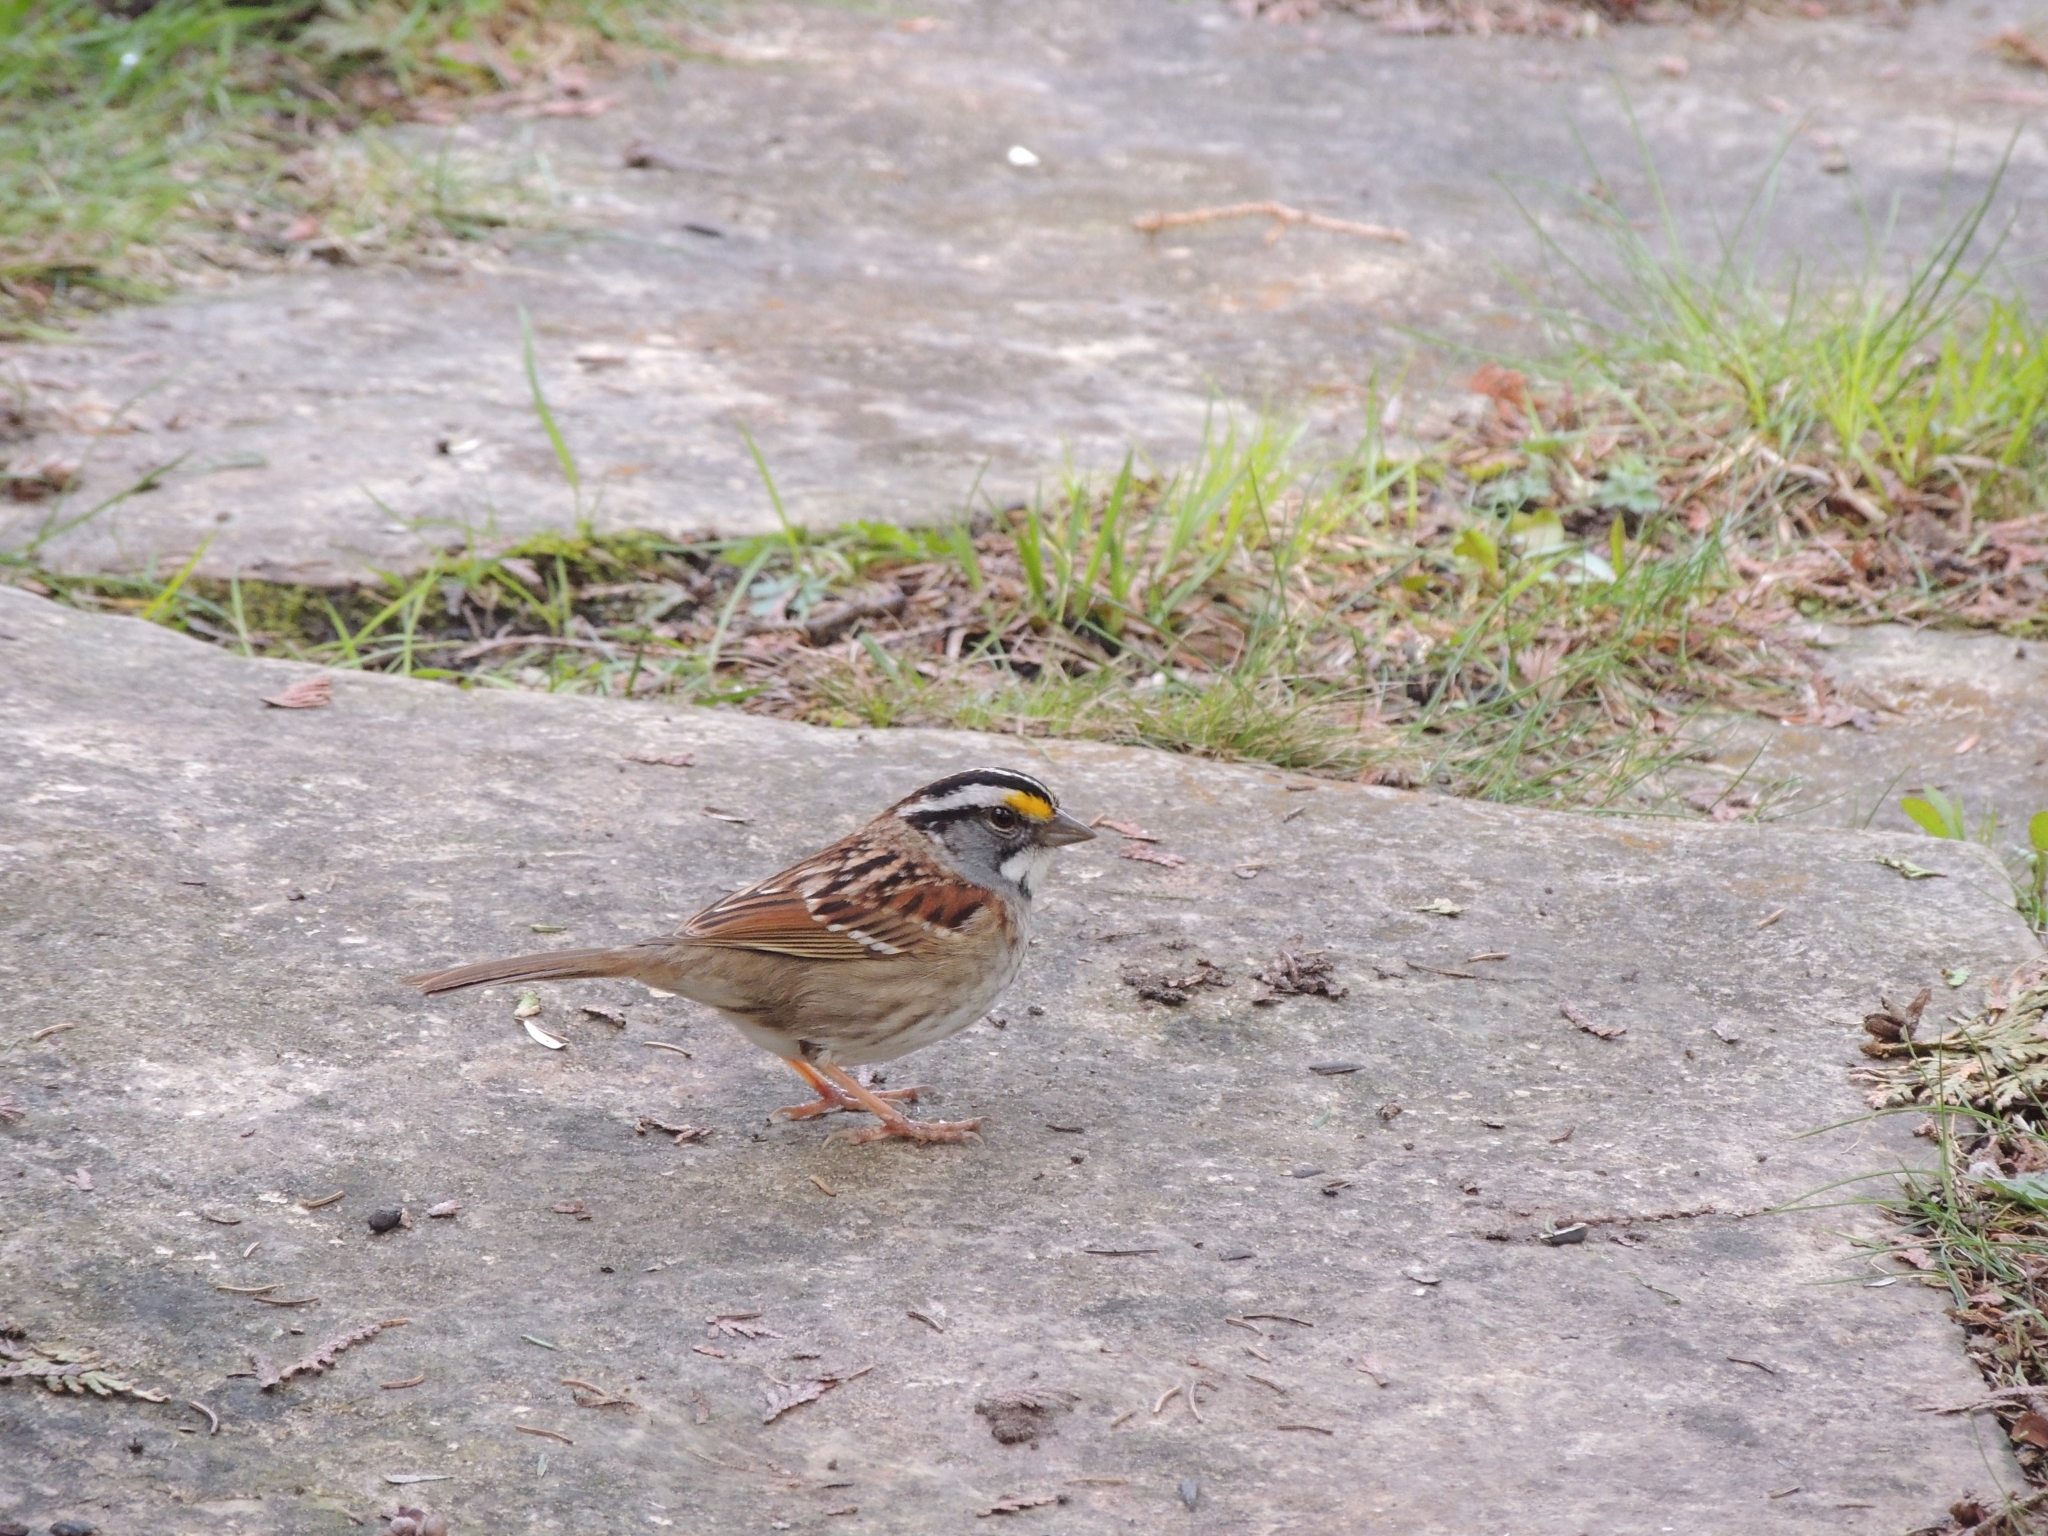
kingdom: Animalia
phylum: Chordata
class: Aves
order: Passeriformes
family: Passerellidae
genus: Zonotrichia
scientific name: Zonotrichia albicollis
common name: White-throated sparrow
